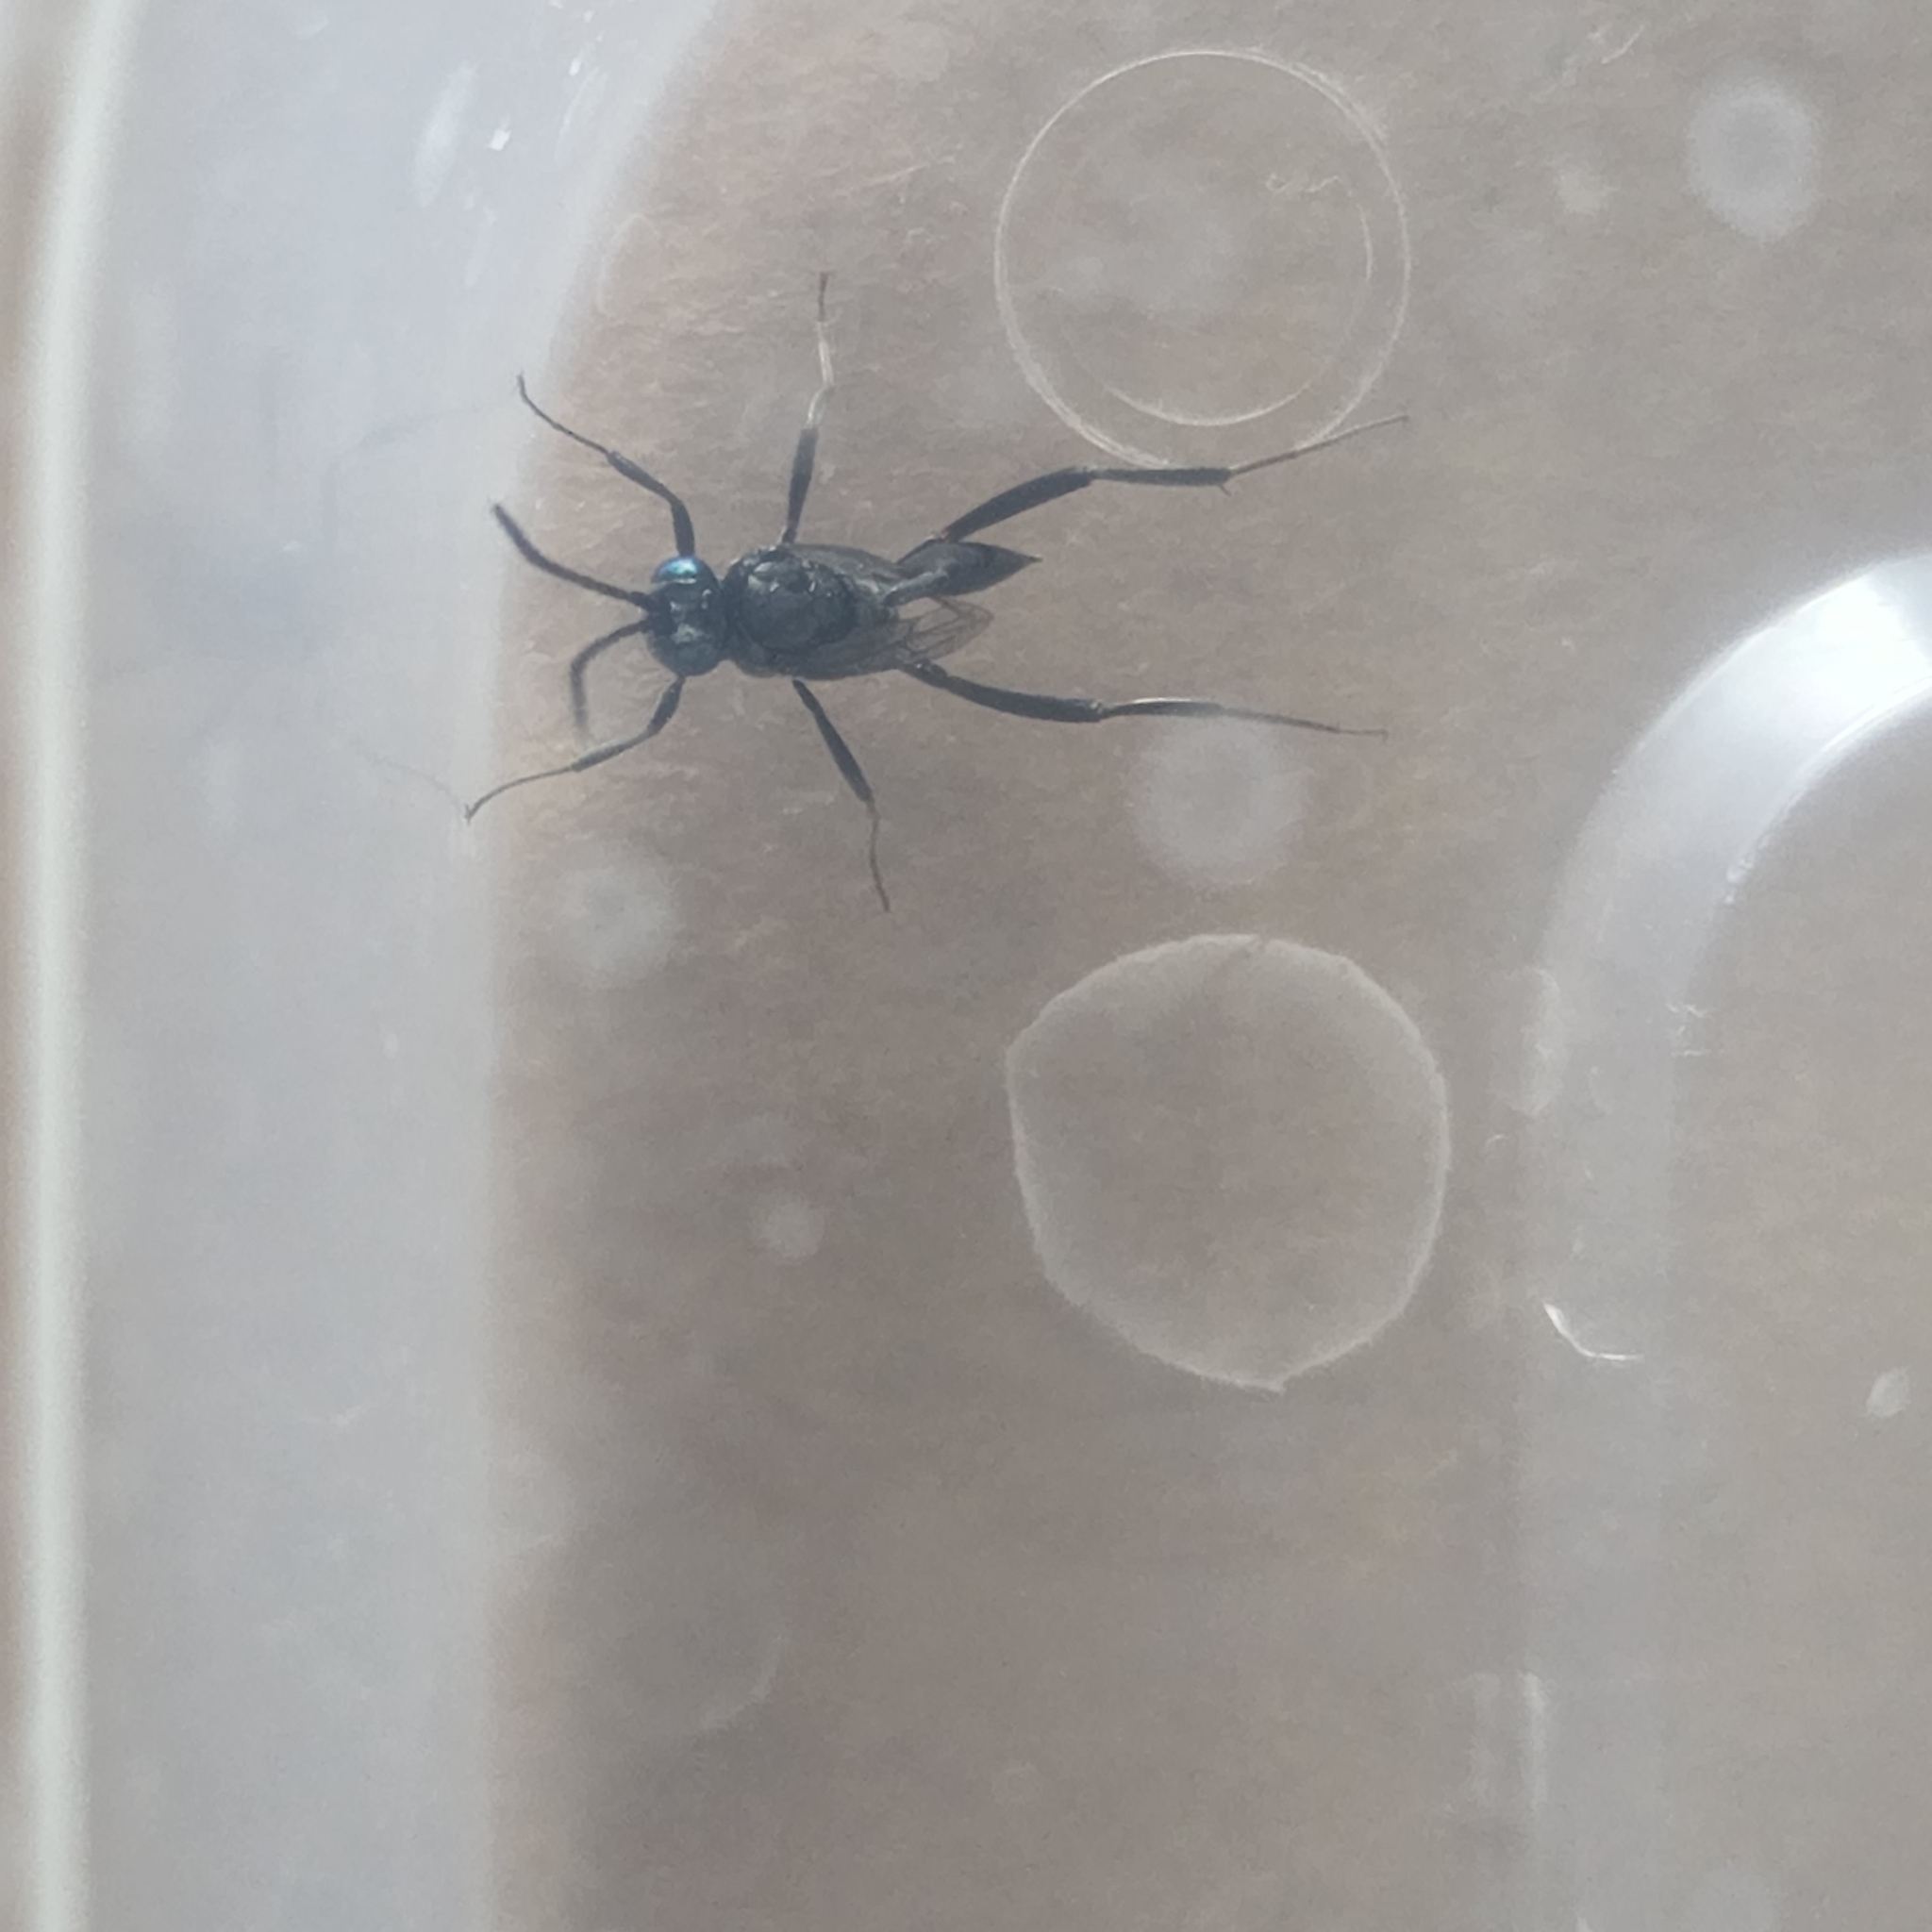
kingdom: Animalia
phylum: Arthropoda
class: Insecta
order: Hymenoptera
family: Evaniidae
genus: Evania
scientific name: Evania appendigaster
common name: Ensign wasp
